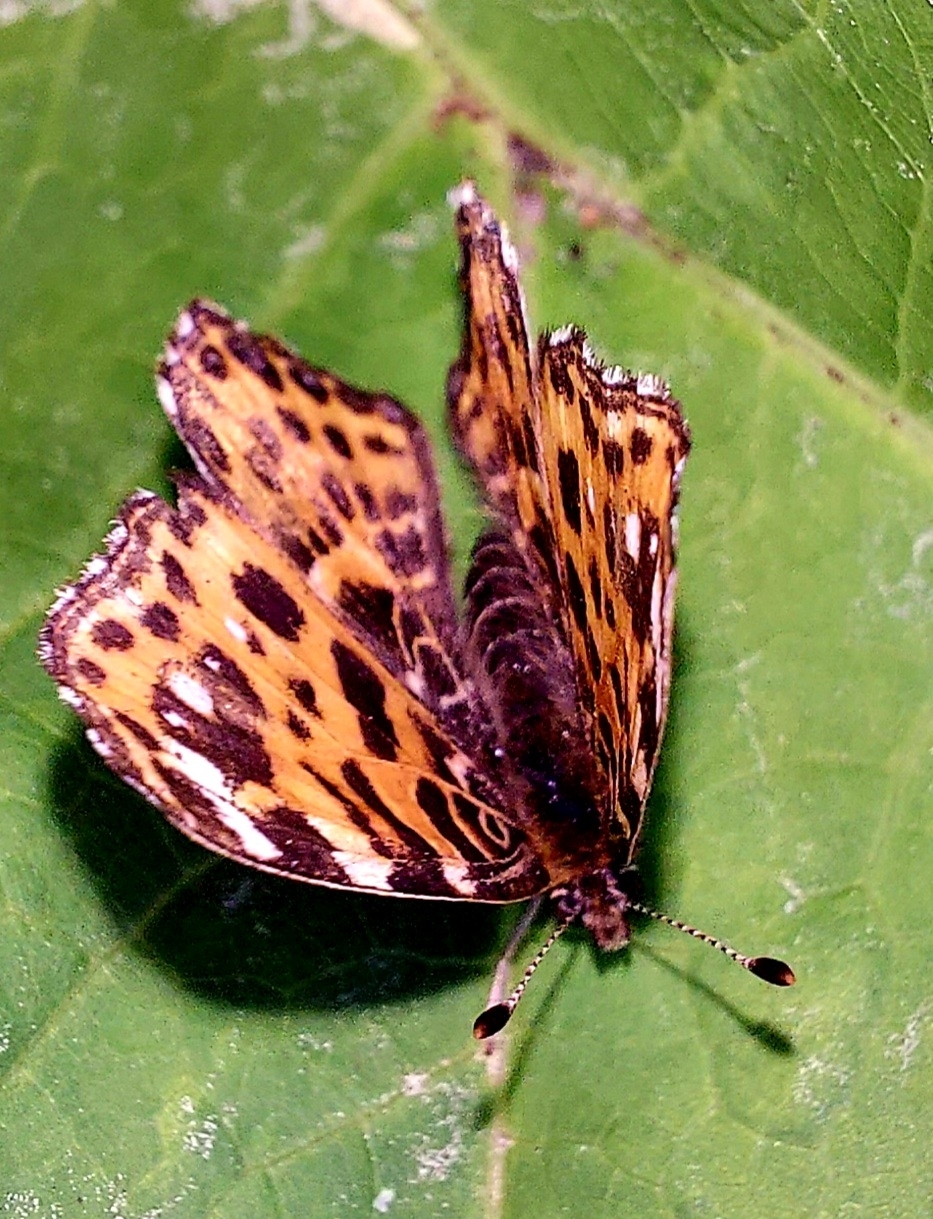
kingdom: Animalia
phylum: Arthropoda
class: Insecta
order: Lepidoptera
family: Nymphalidae
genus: Araschnia
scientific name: Araschnia levana
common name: Map butterfly
